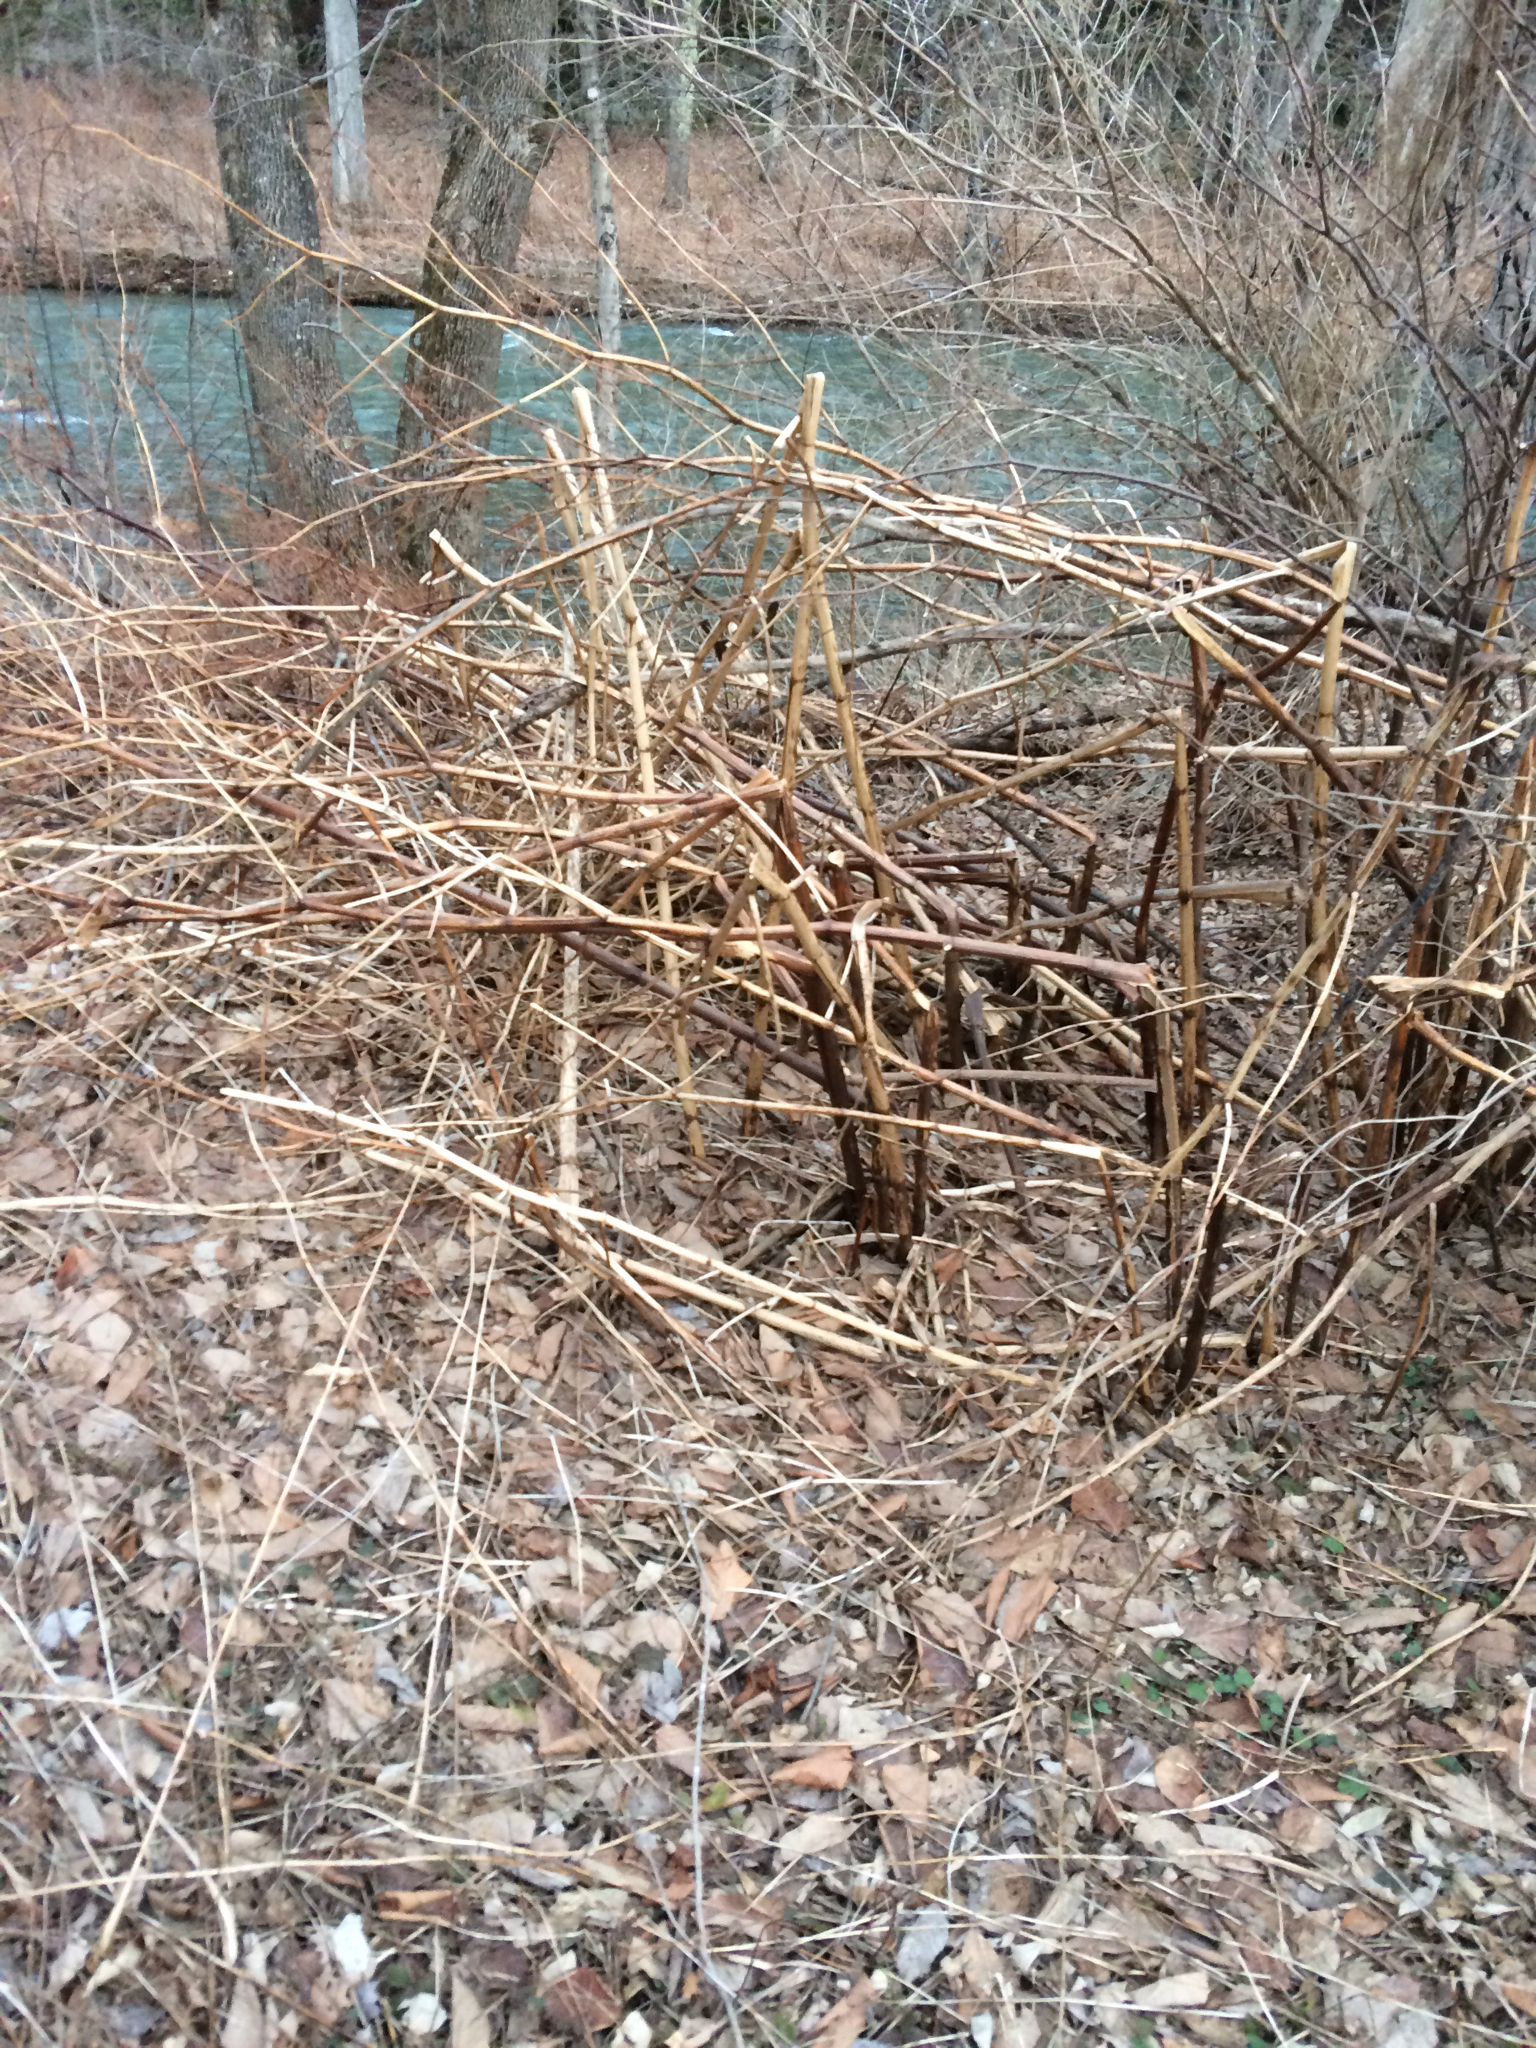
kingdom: Plantae
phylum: Tracheophyta
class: Magnoliopsida
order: Caryophyllales
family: Polygonaceae
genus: Reynoutria
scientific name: Reynoutria japonica
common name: Japanese knotweed
